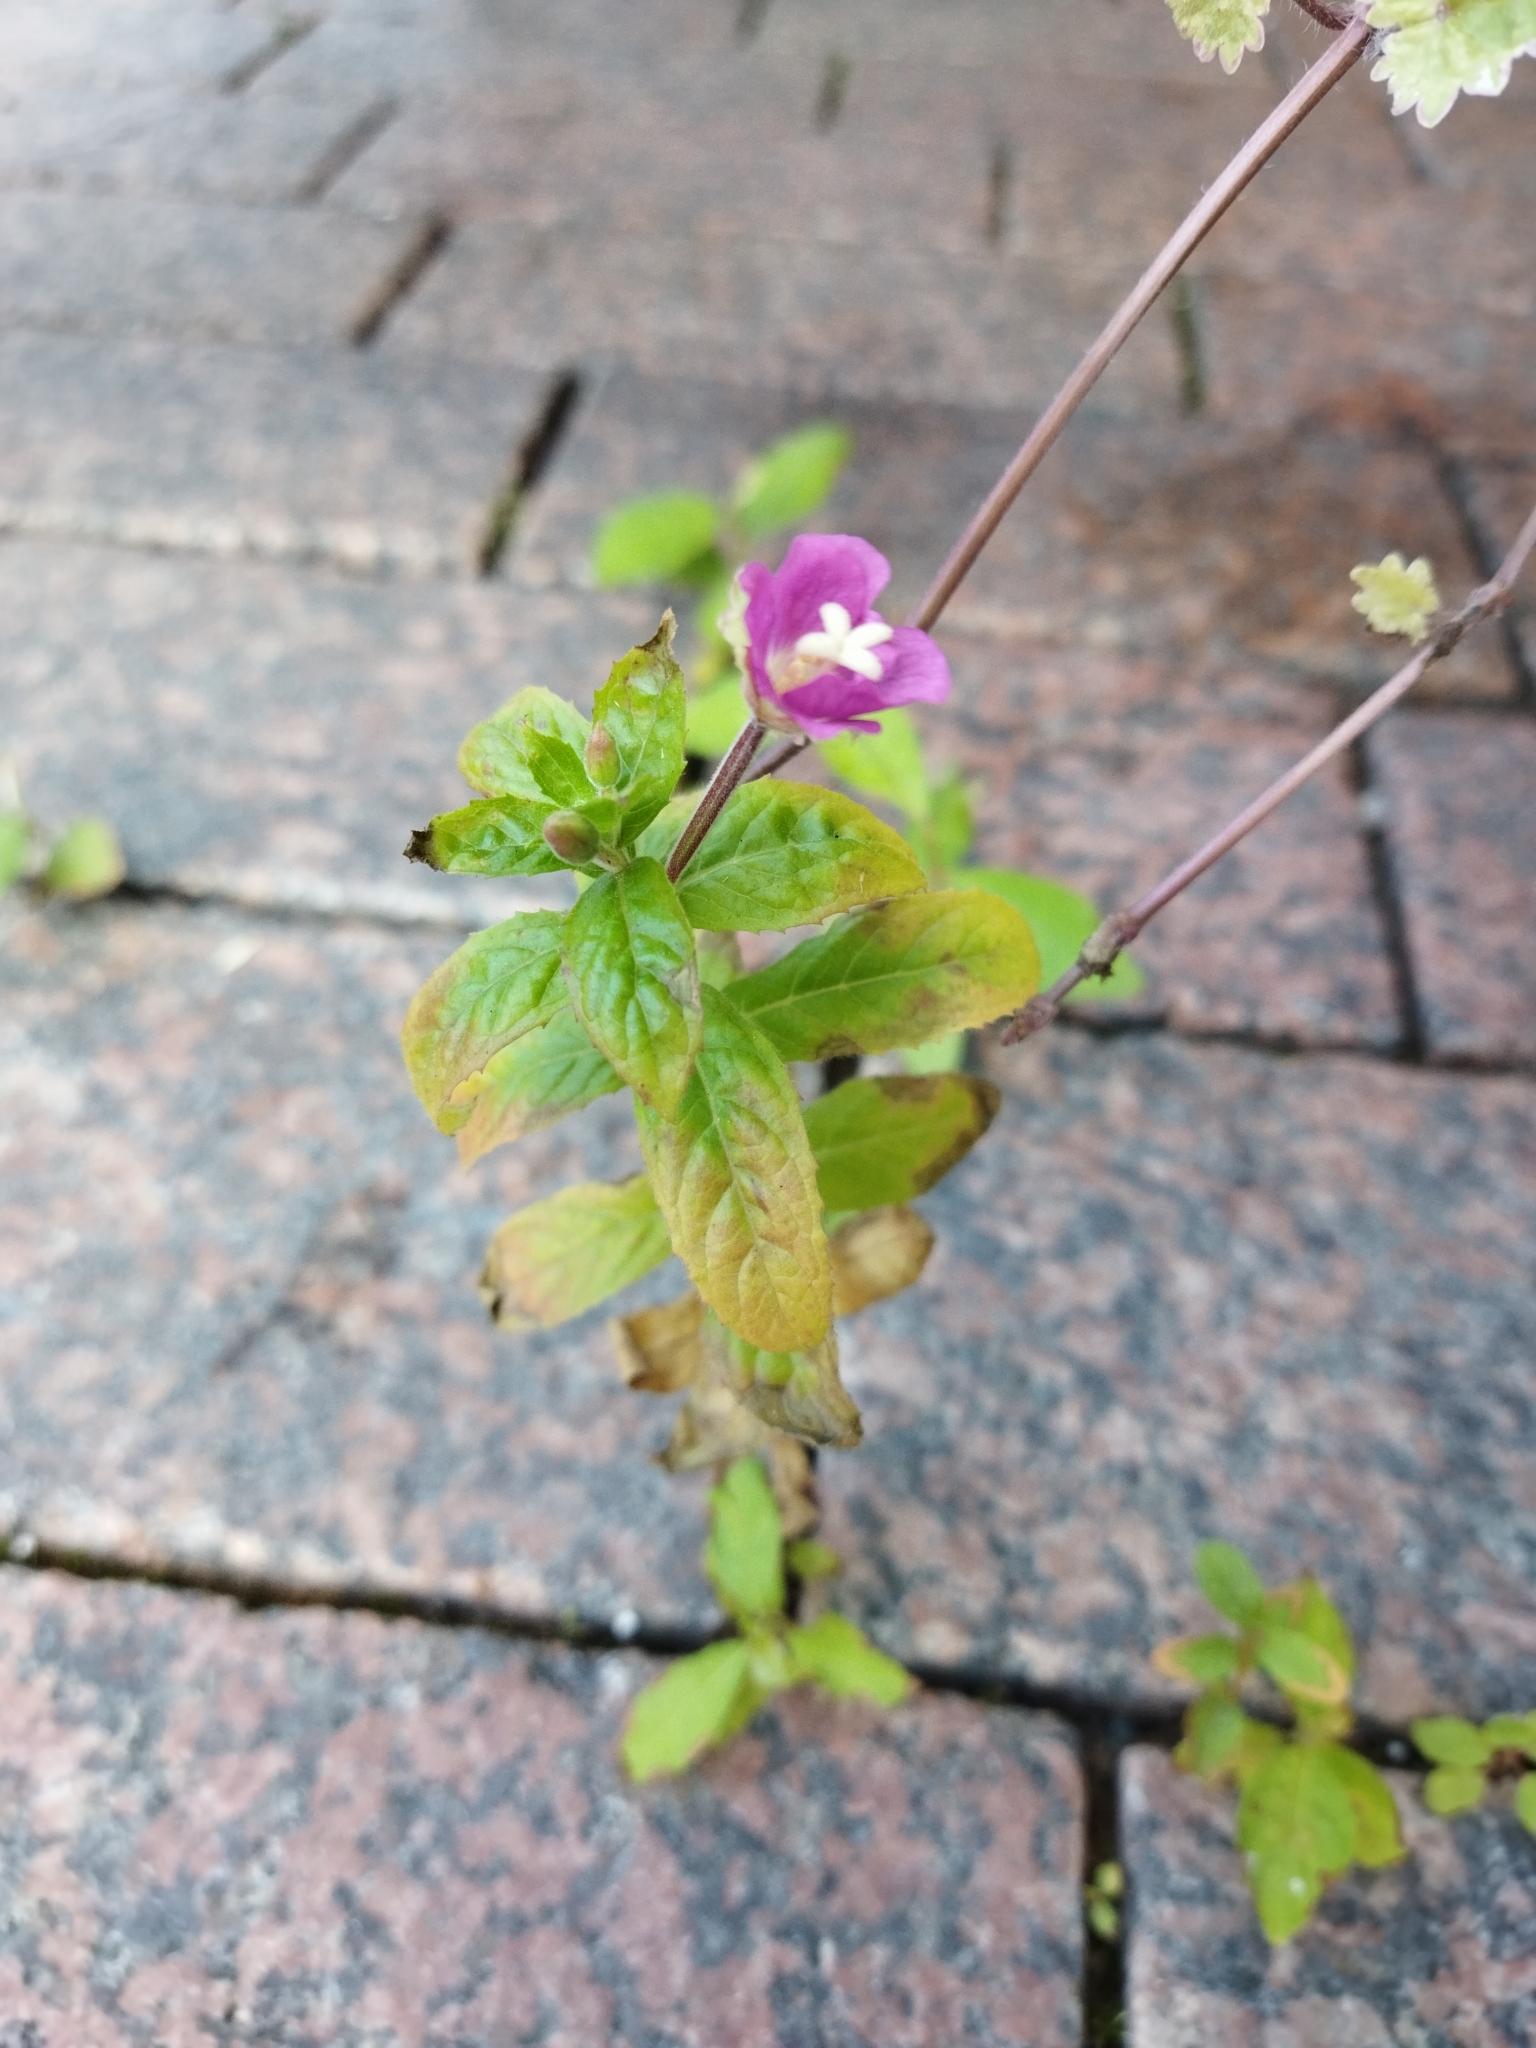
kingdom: Plantae
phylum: Tracheophyta
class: Magnoliopsida
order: Myrtales
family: Onagraceae
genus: Epilobium
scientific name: Epilobium hirsutum
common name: Great willowherb
